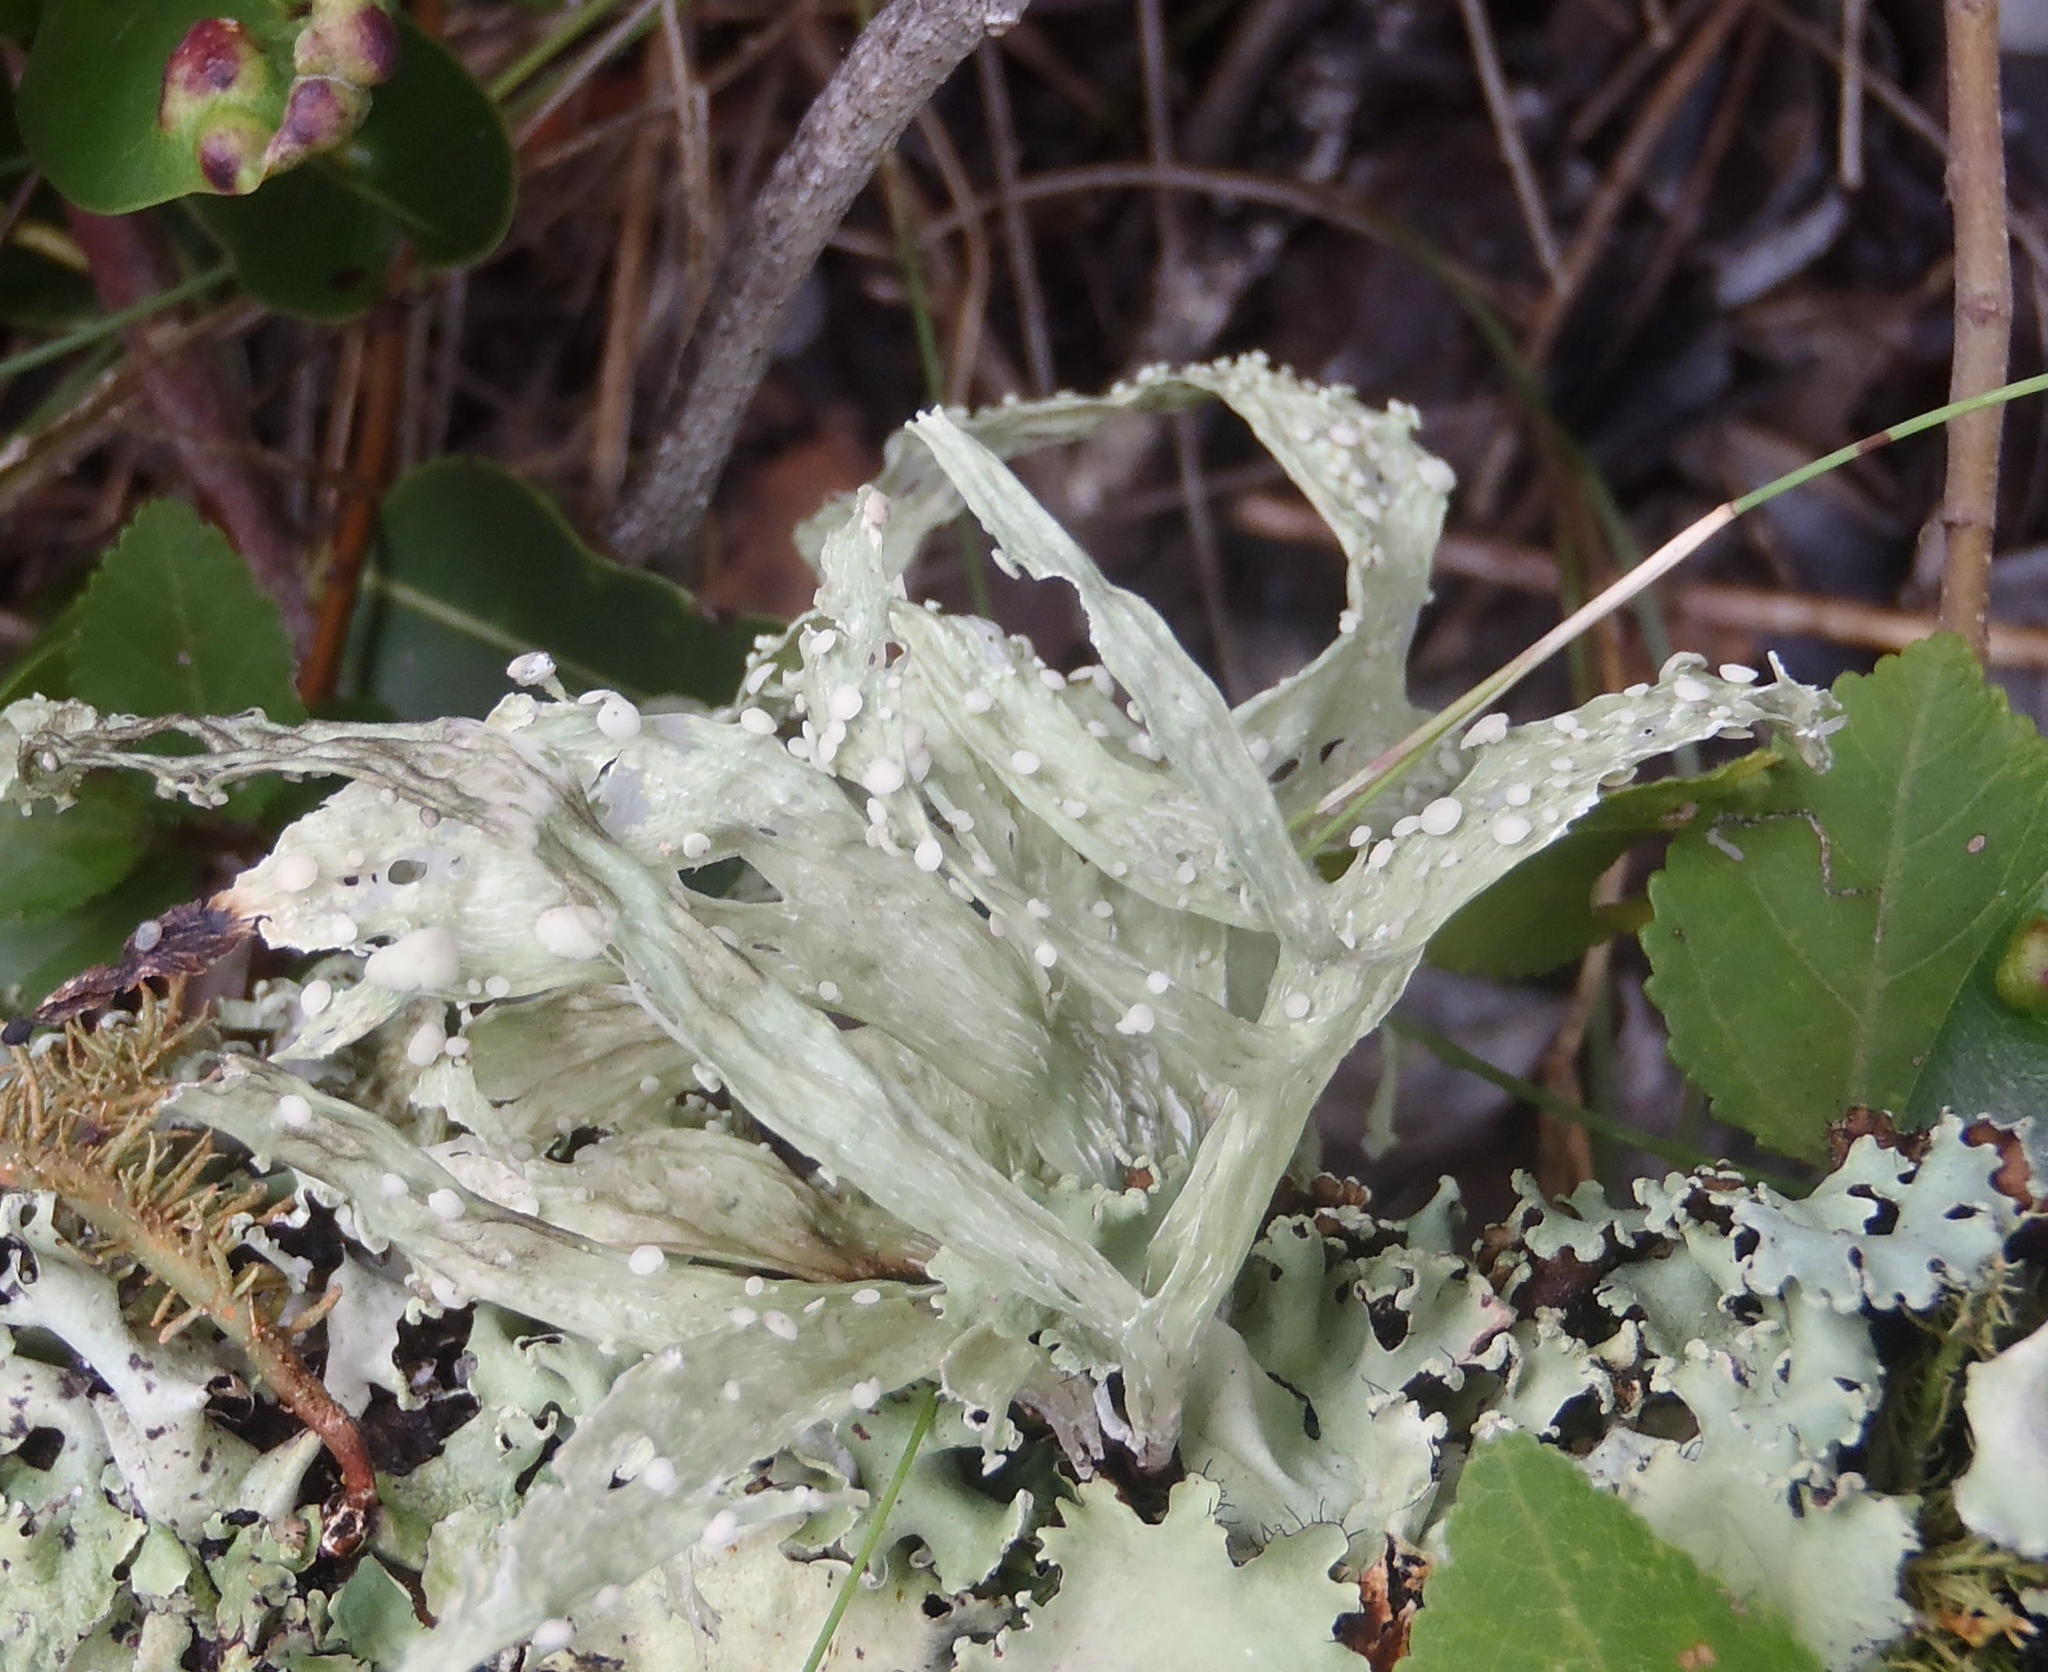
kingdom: Fungi
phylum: Ascomycota
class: Lecanoromycetes
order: Lecanorales
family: Ramalinaceae
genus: Ramalina
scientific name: Ramalina celastri
